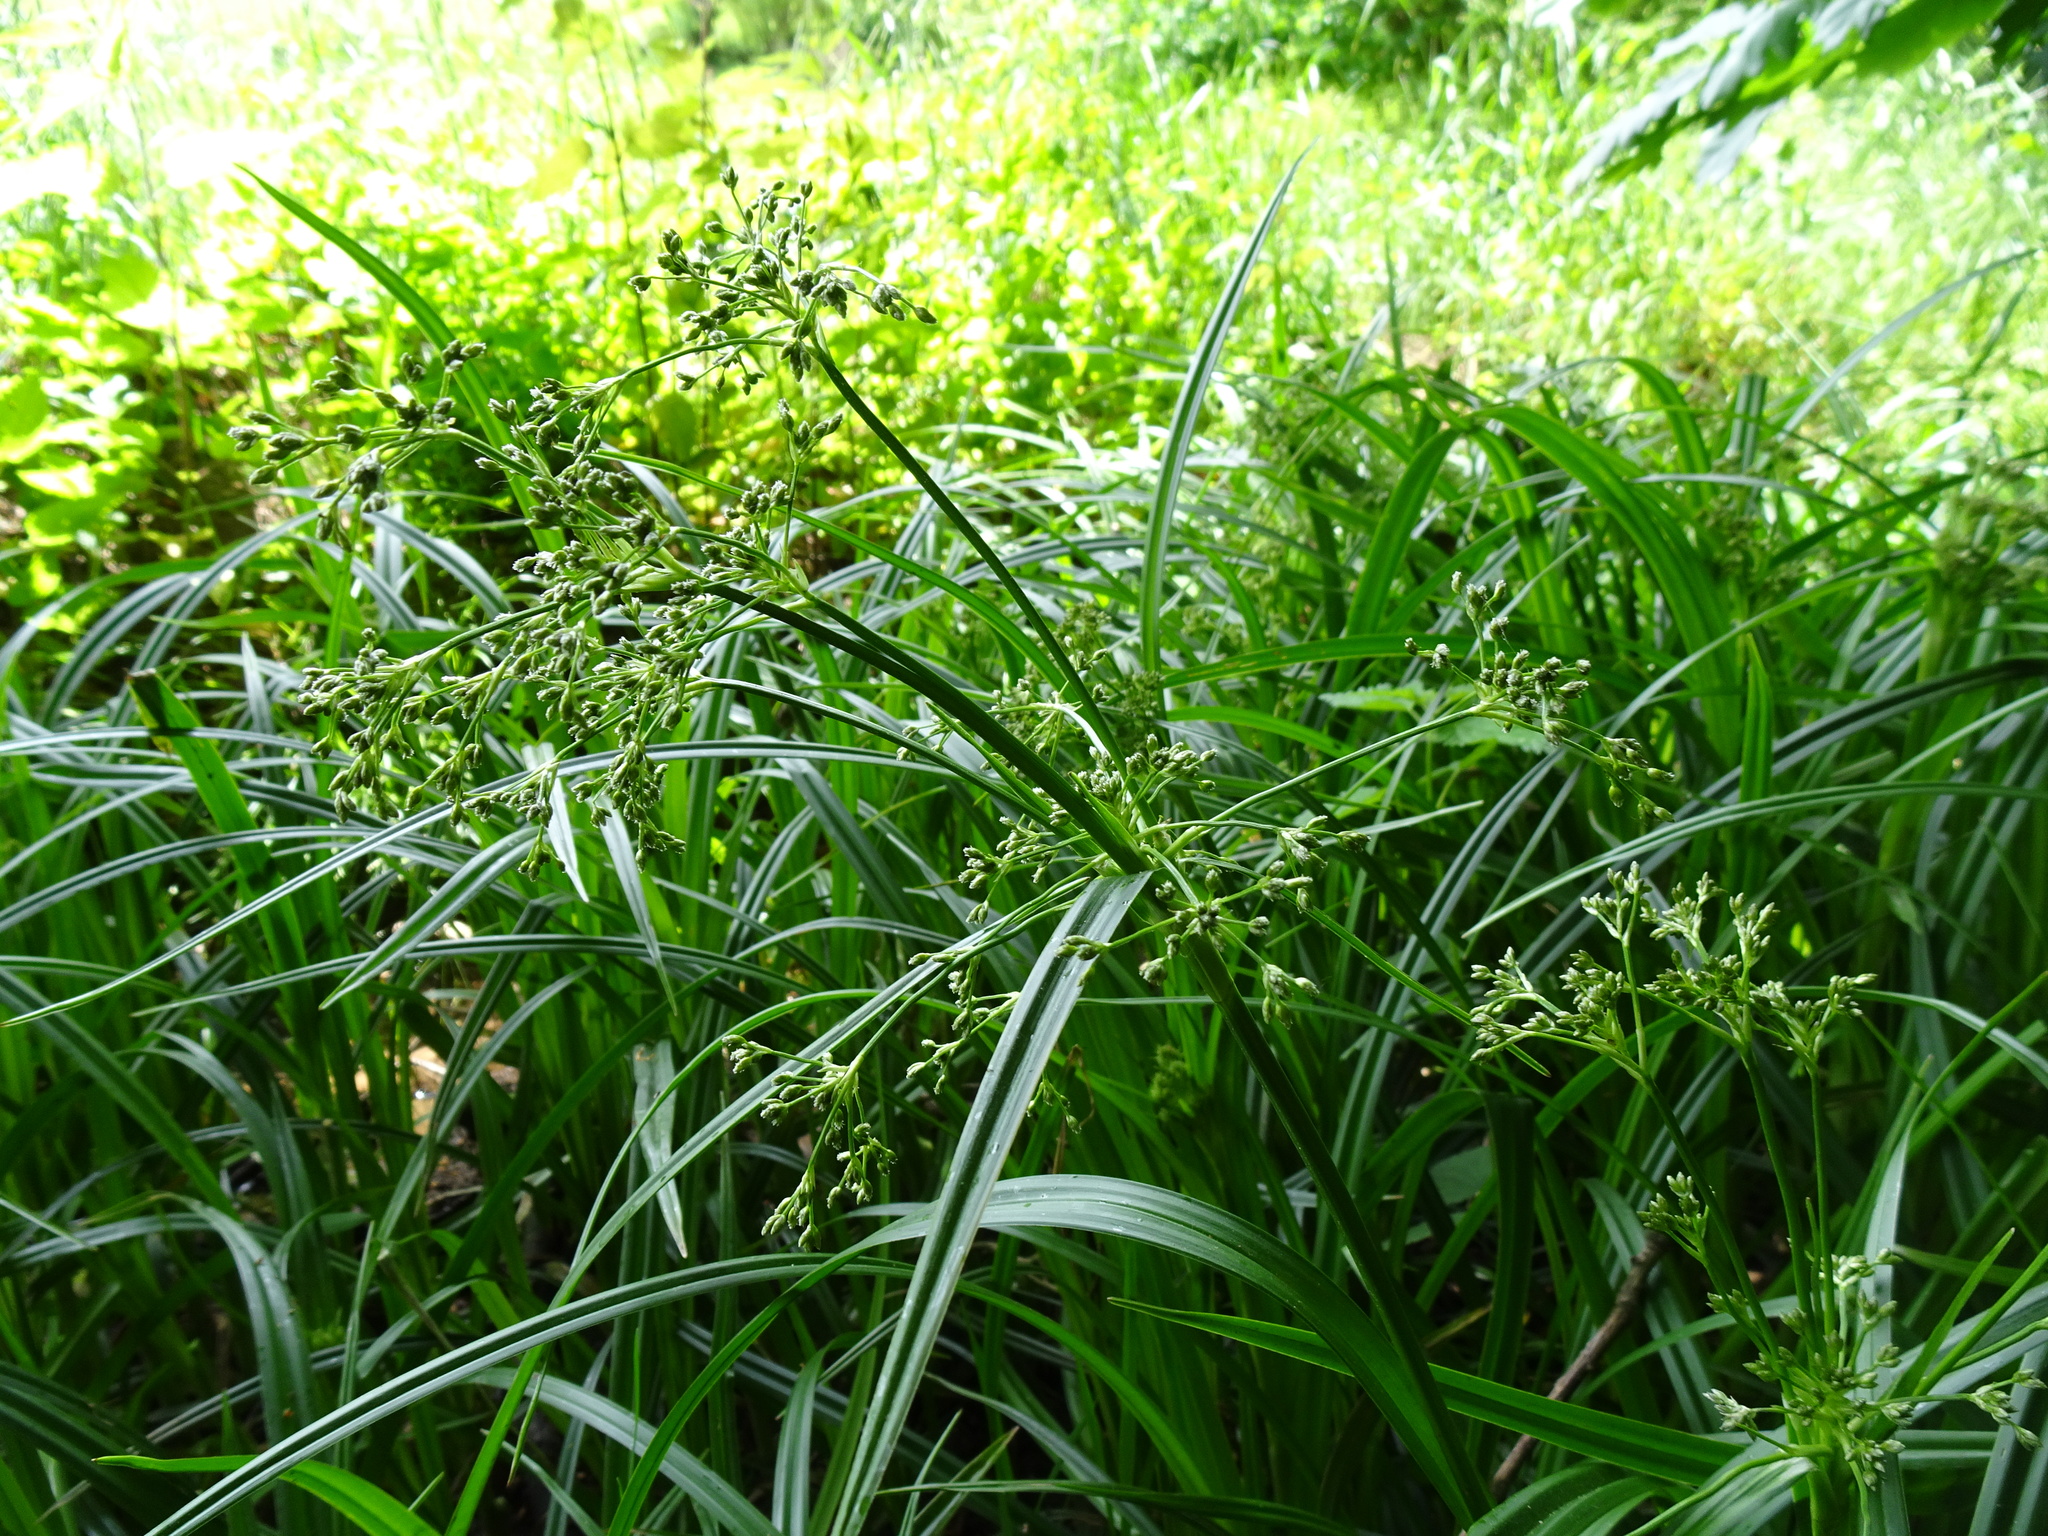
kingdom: Plantae
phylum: Tracheophyta
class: Liliopsida
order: Poales
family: Cyperaceae
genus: Scirpus
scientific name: Scirpus sylvaticus
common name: Wood club-rush
